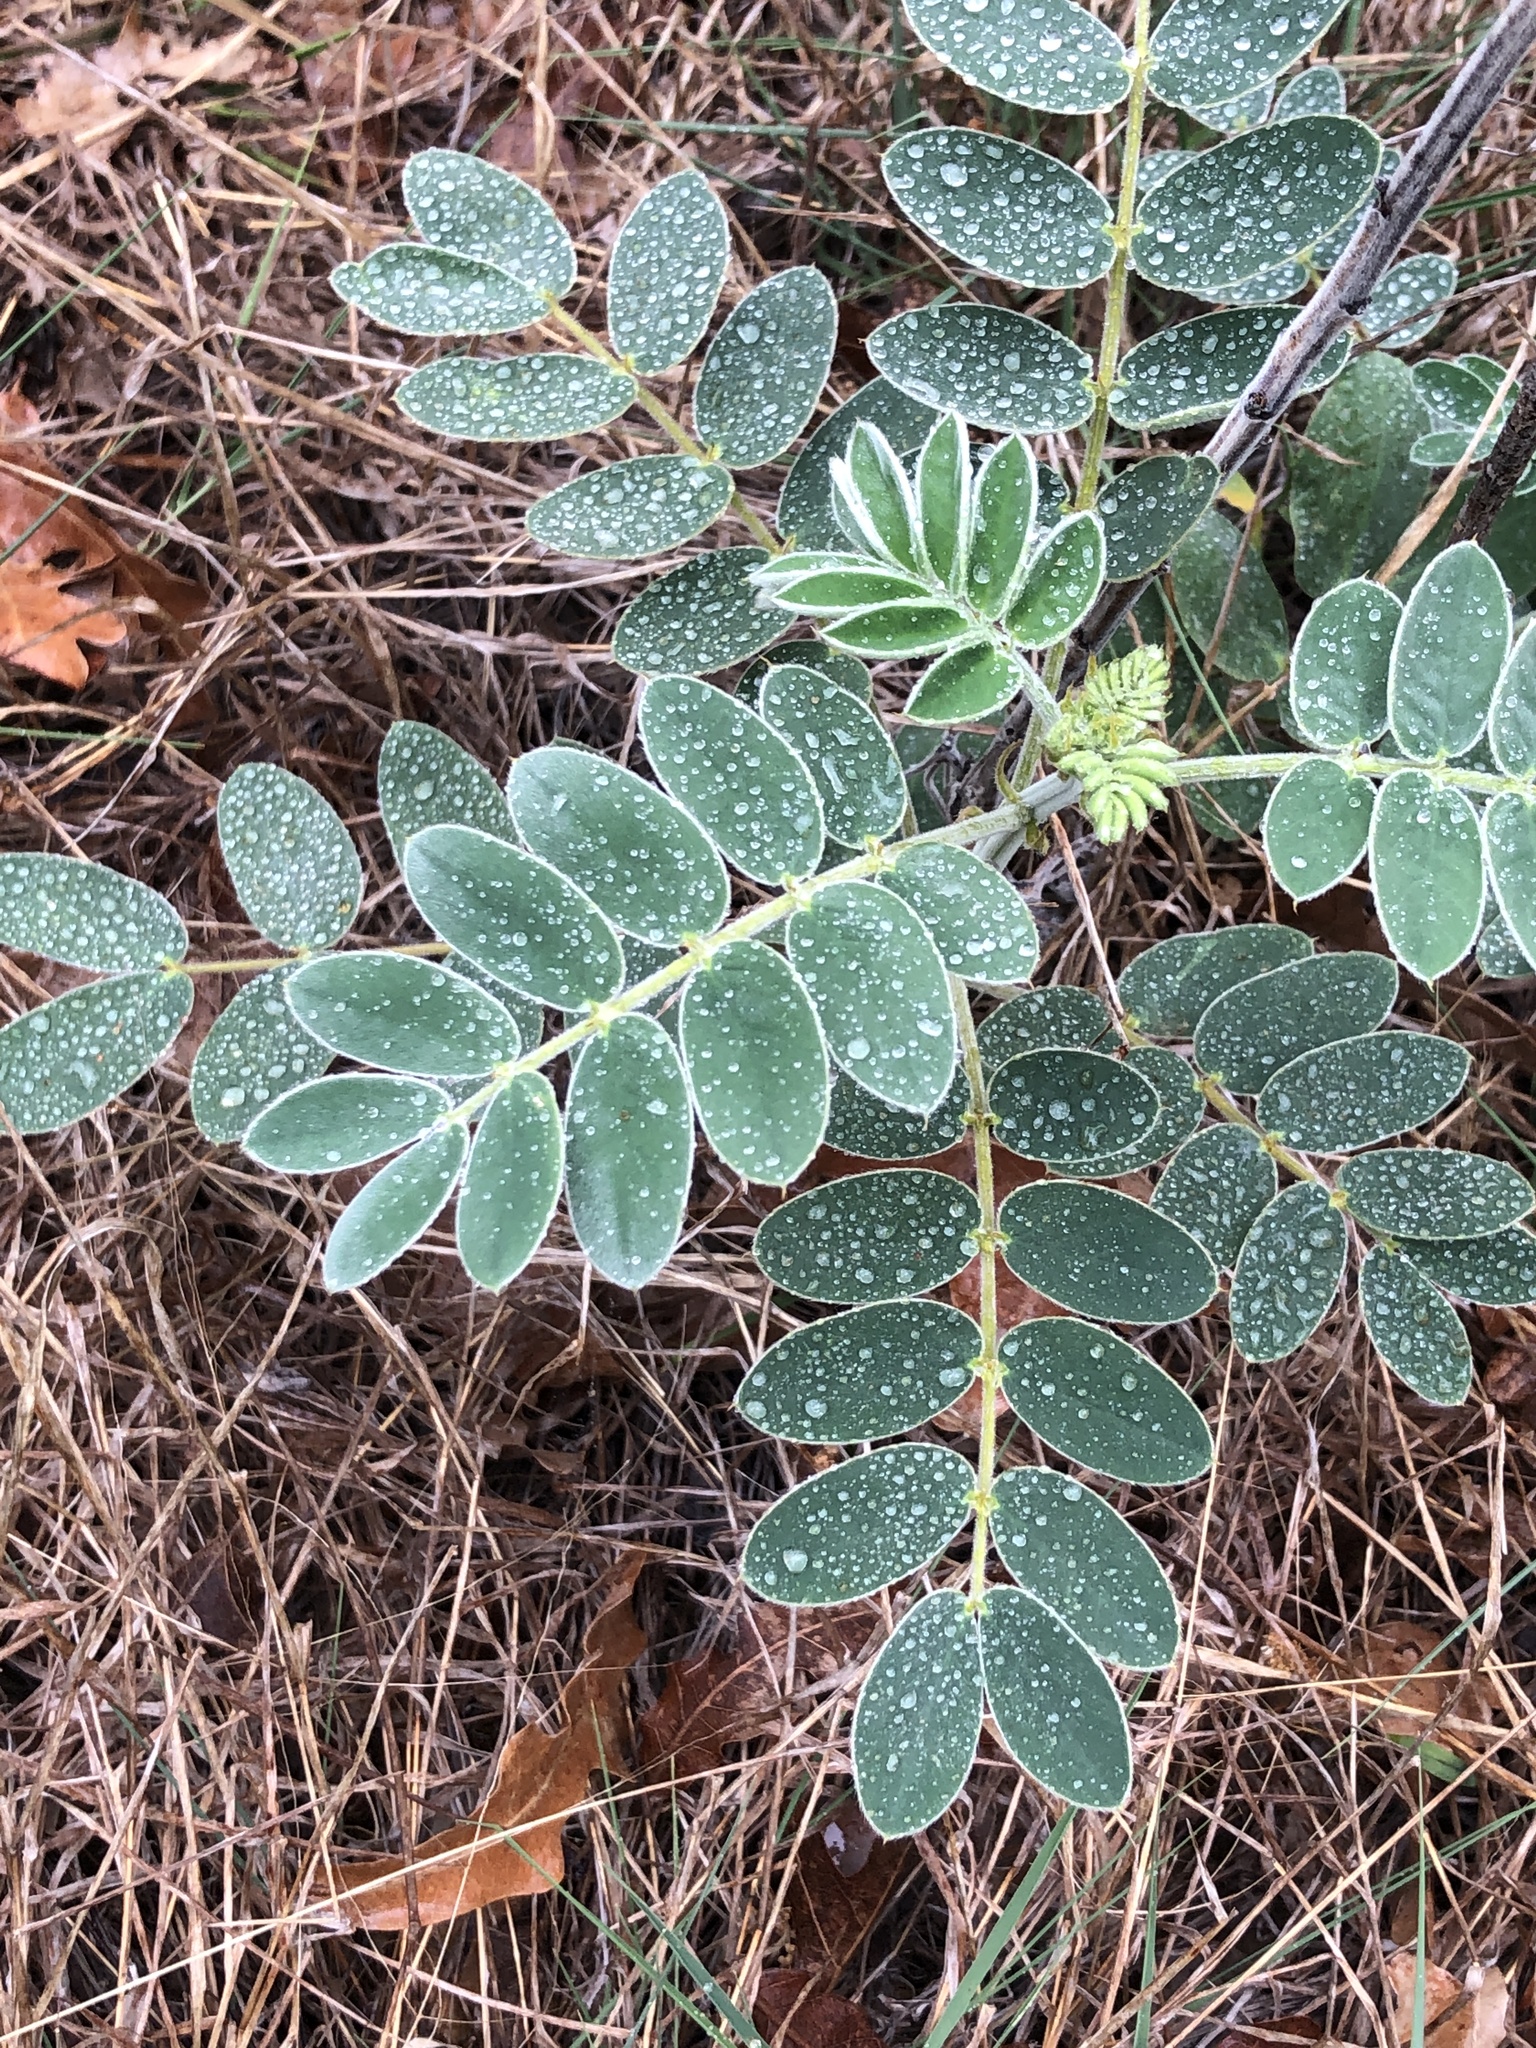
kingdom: Plantae
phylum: Tracheophyta
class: Magnoliopsida
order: Fabales
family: Fabaceae
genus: Senna
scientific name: Senna lindheimeriana
